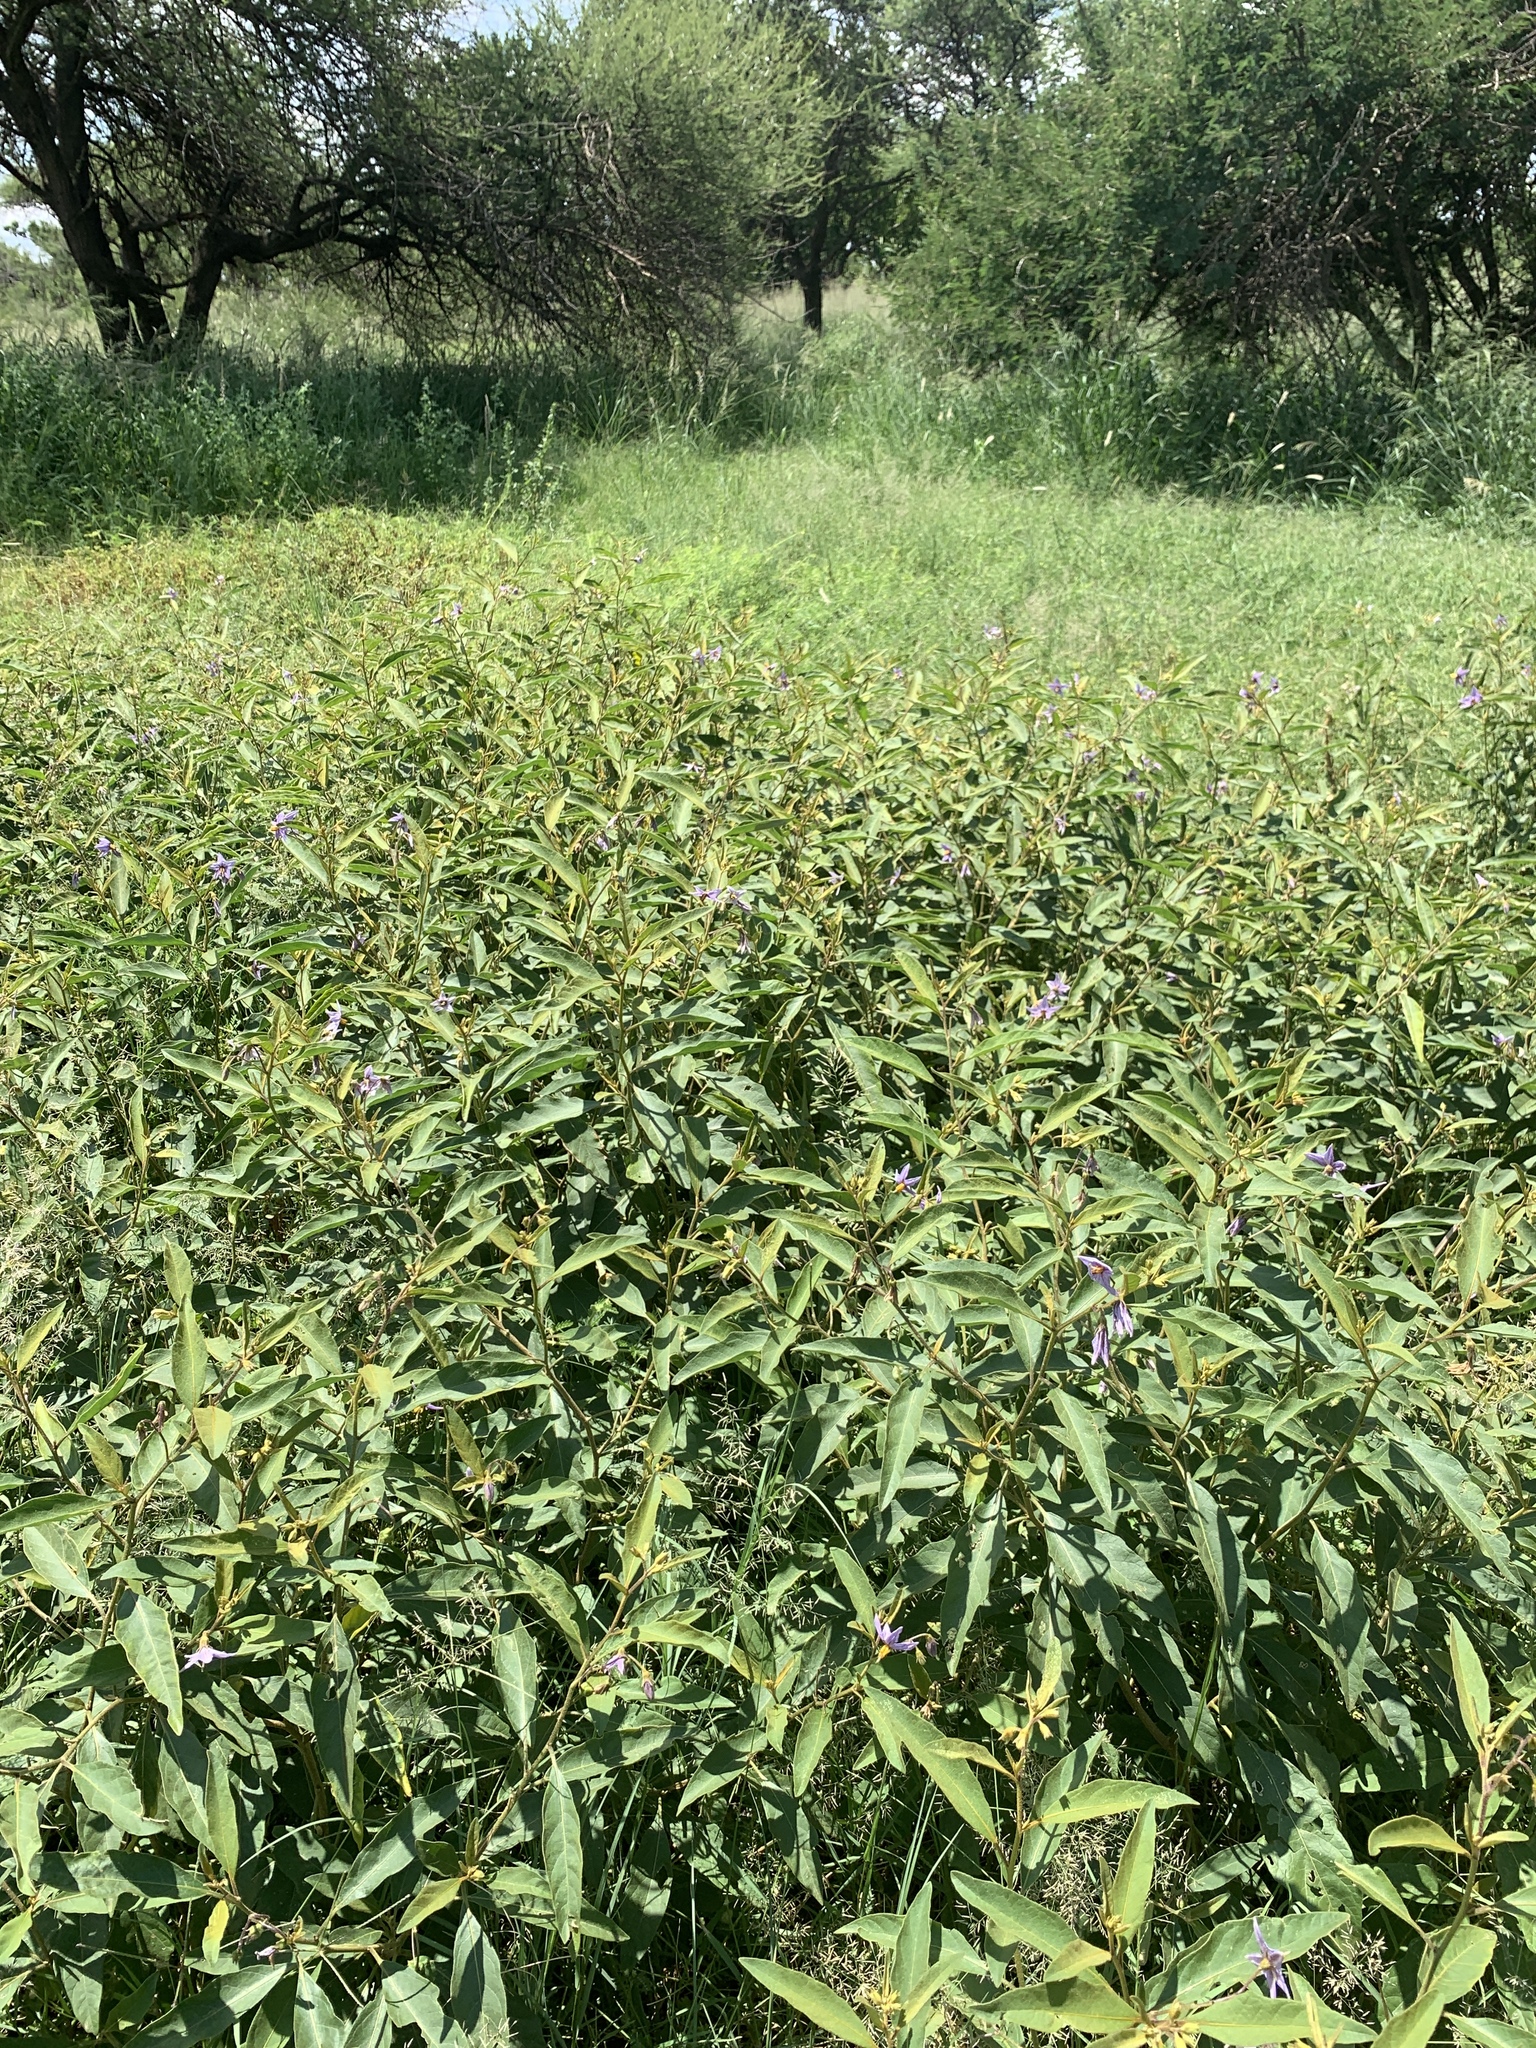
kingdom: Plantae
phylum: Tracheophyta
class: Magnoliopsida
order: Solanales
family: Solanaceae
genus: Solanum
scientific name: Solanum campylacanthum
